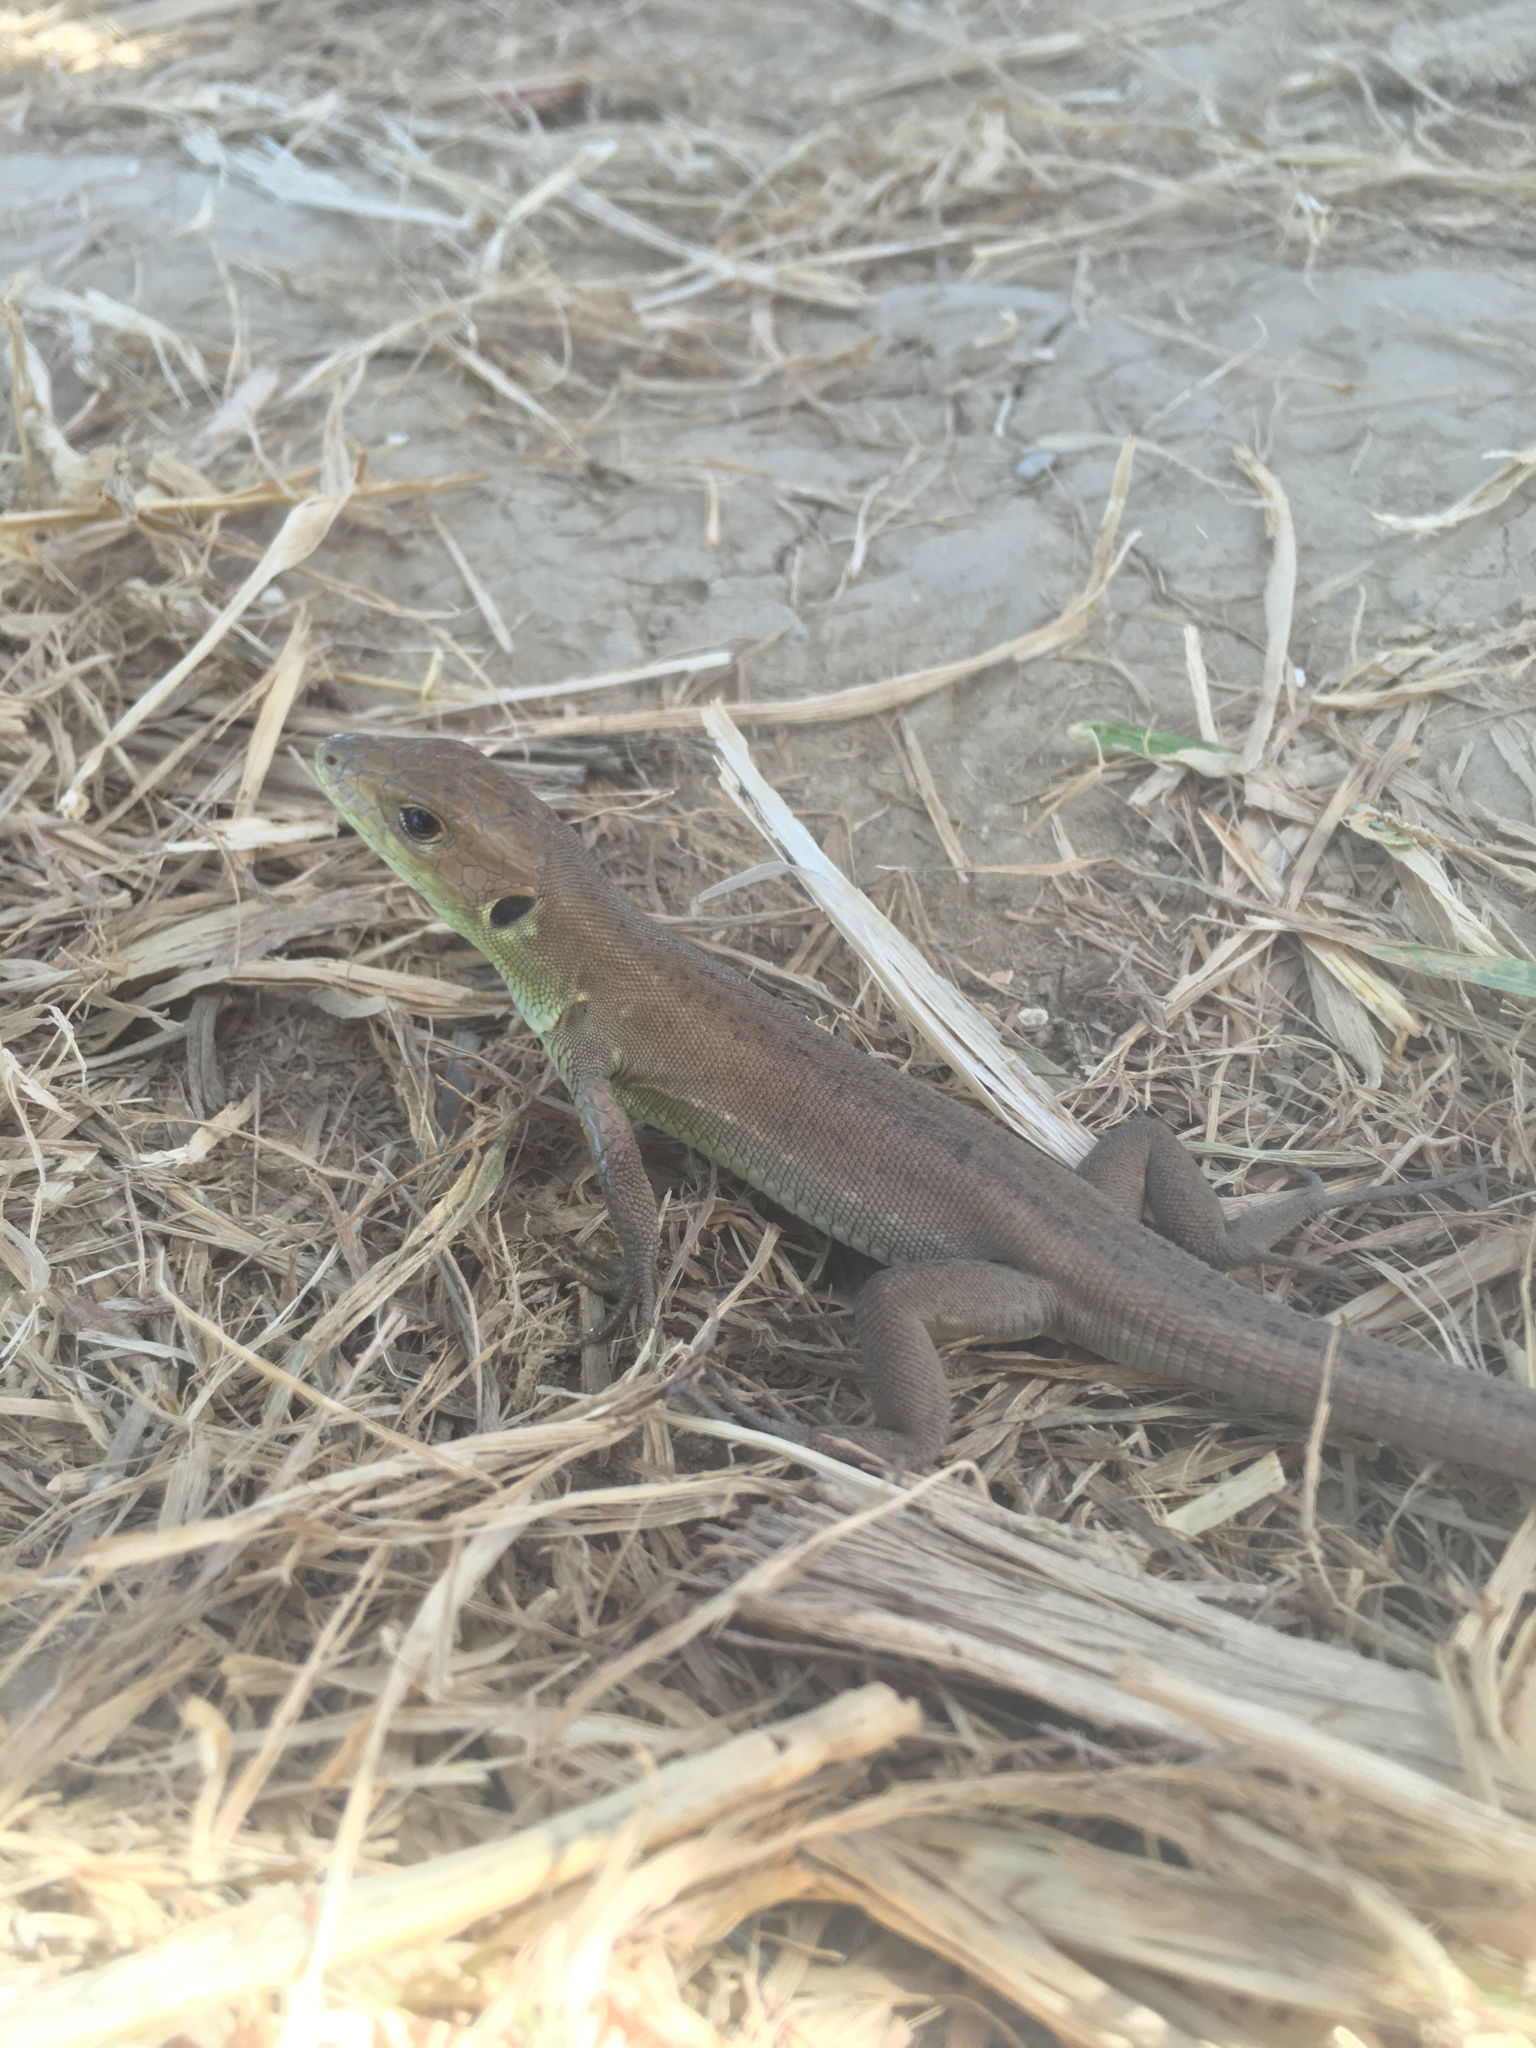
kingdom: Animalia
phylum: Chordata
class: Squamata
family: Lacertidae
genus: Lacerta
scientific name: Lacerta viridis
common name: European green lizard
